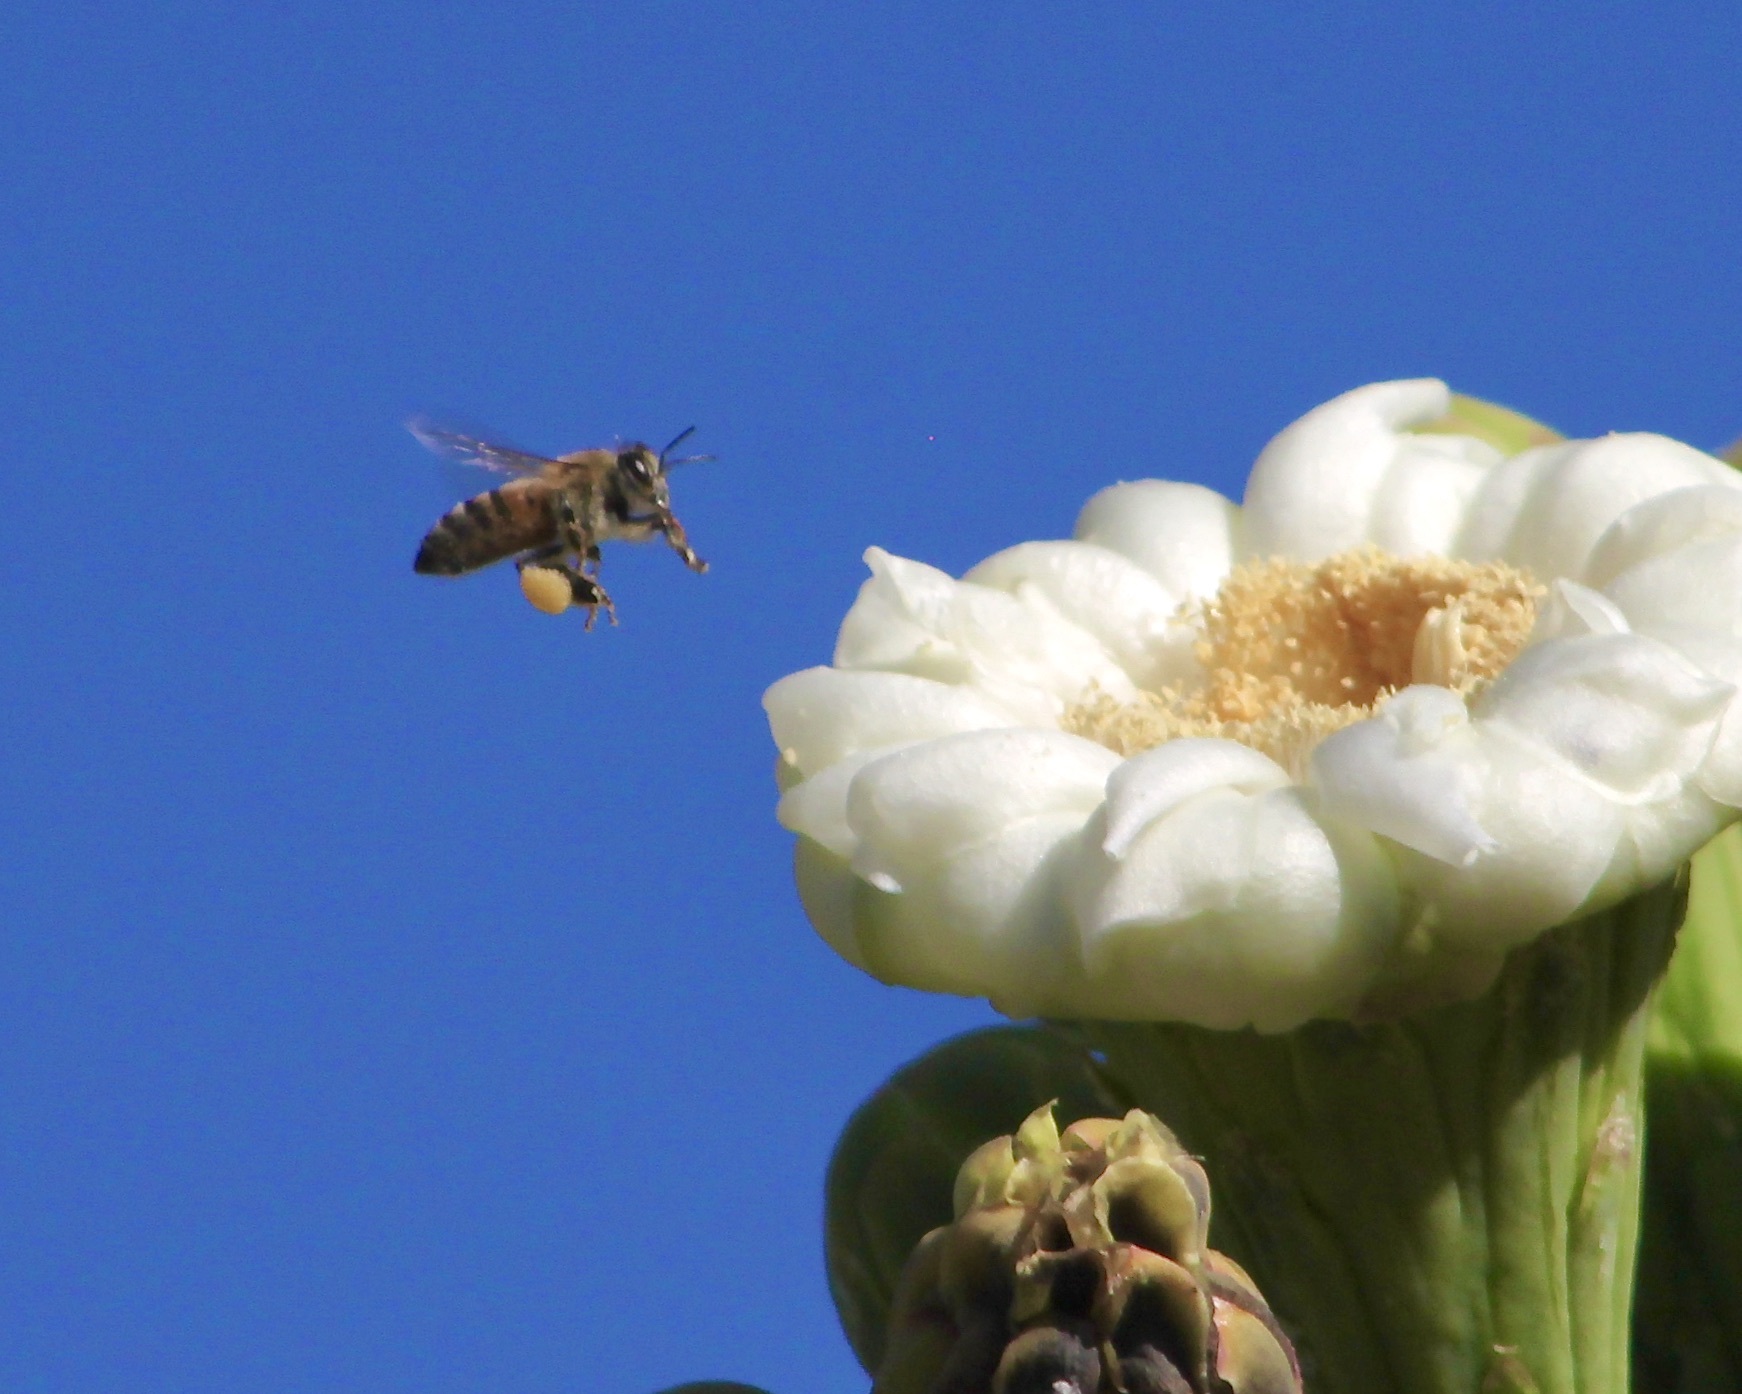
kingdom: Animalia
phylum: Arthropoda
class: Insecta
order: Hymenoptera
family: Apidae
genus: Apis
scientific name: Apis mellifera
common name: Honey bee
